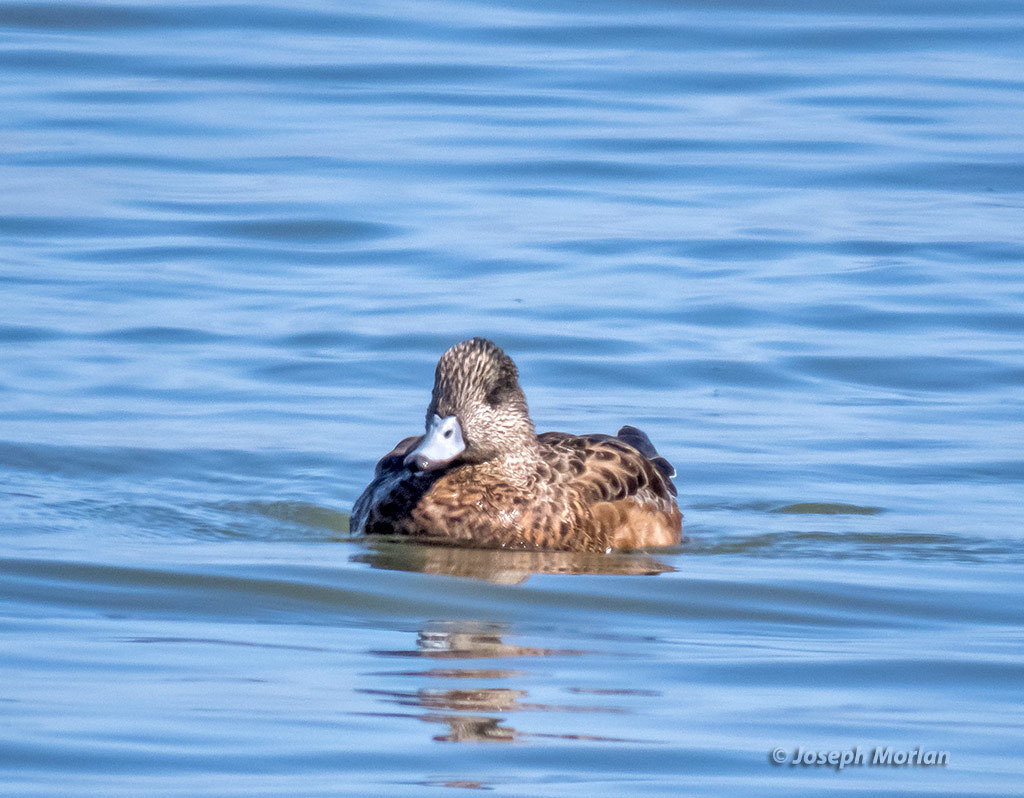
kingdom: Animalia
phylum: Chordata
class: Aves
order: Anseriformes
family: Anatidae
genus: Mareca
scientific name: Mareca americana
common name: American wigeon
